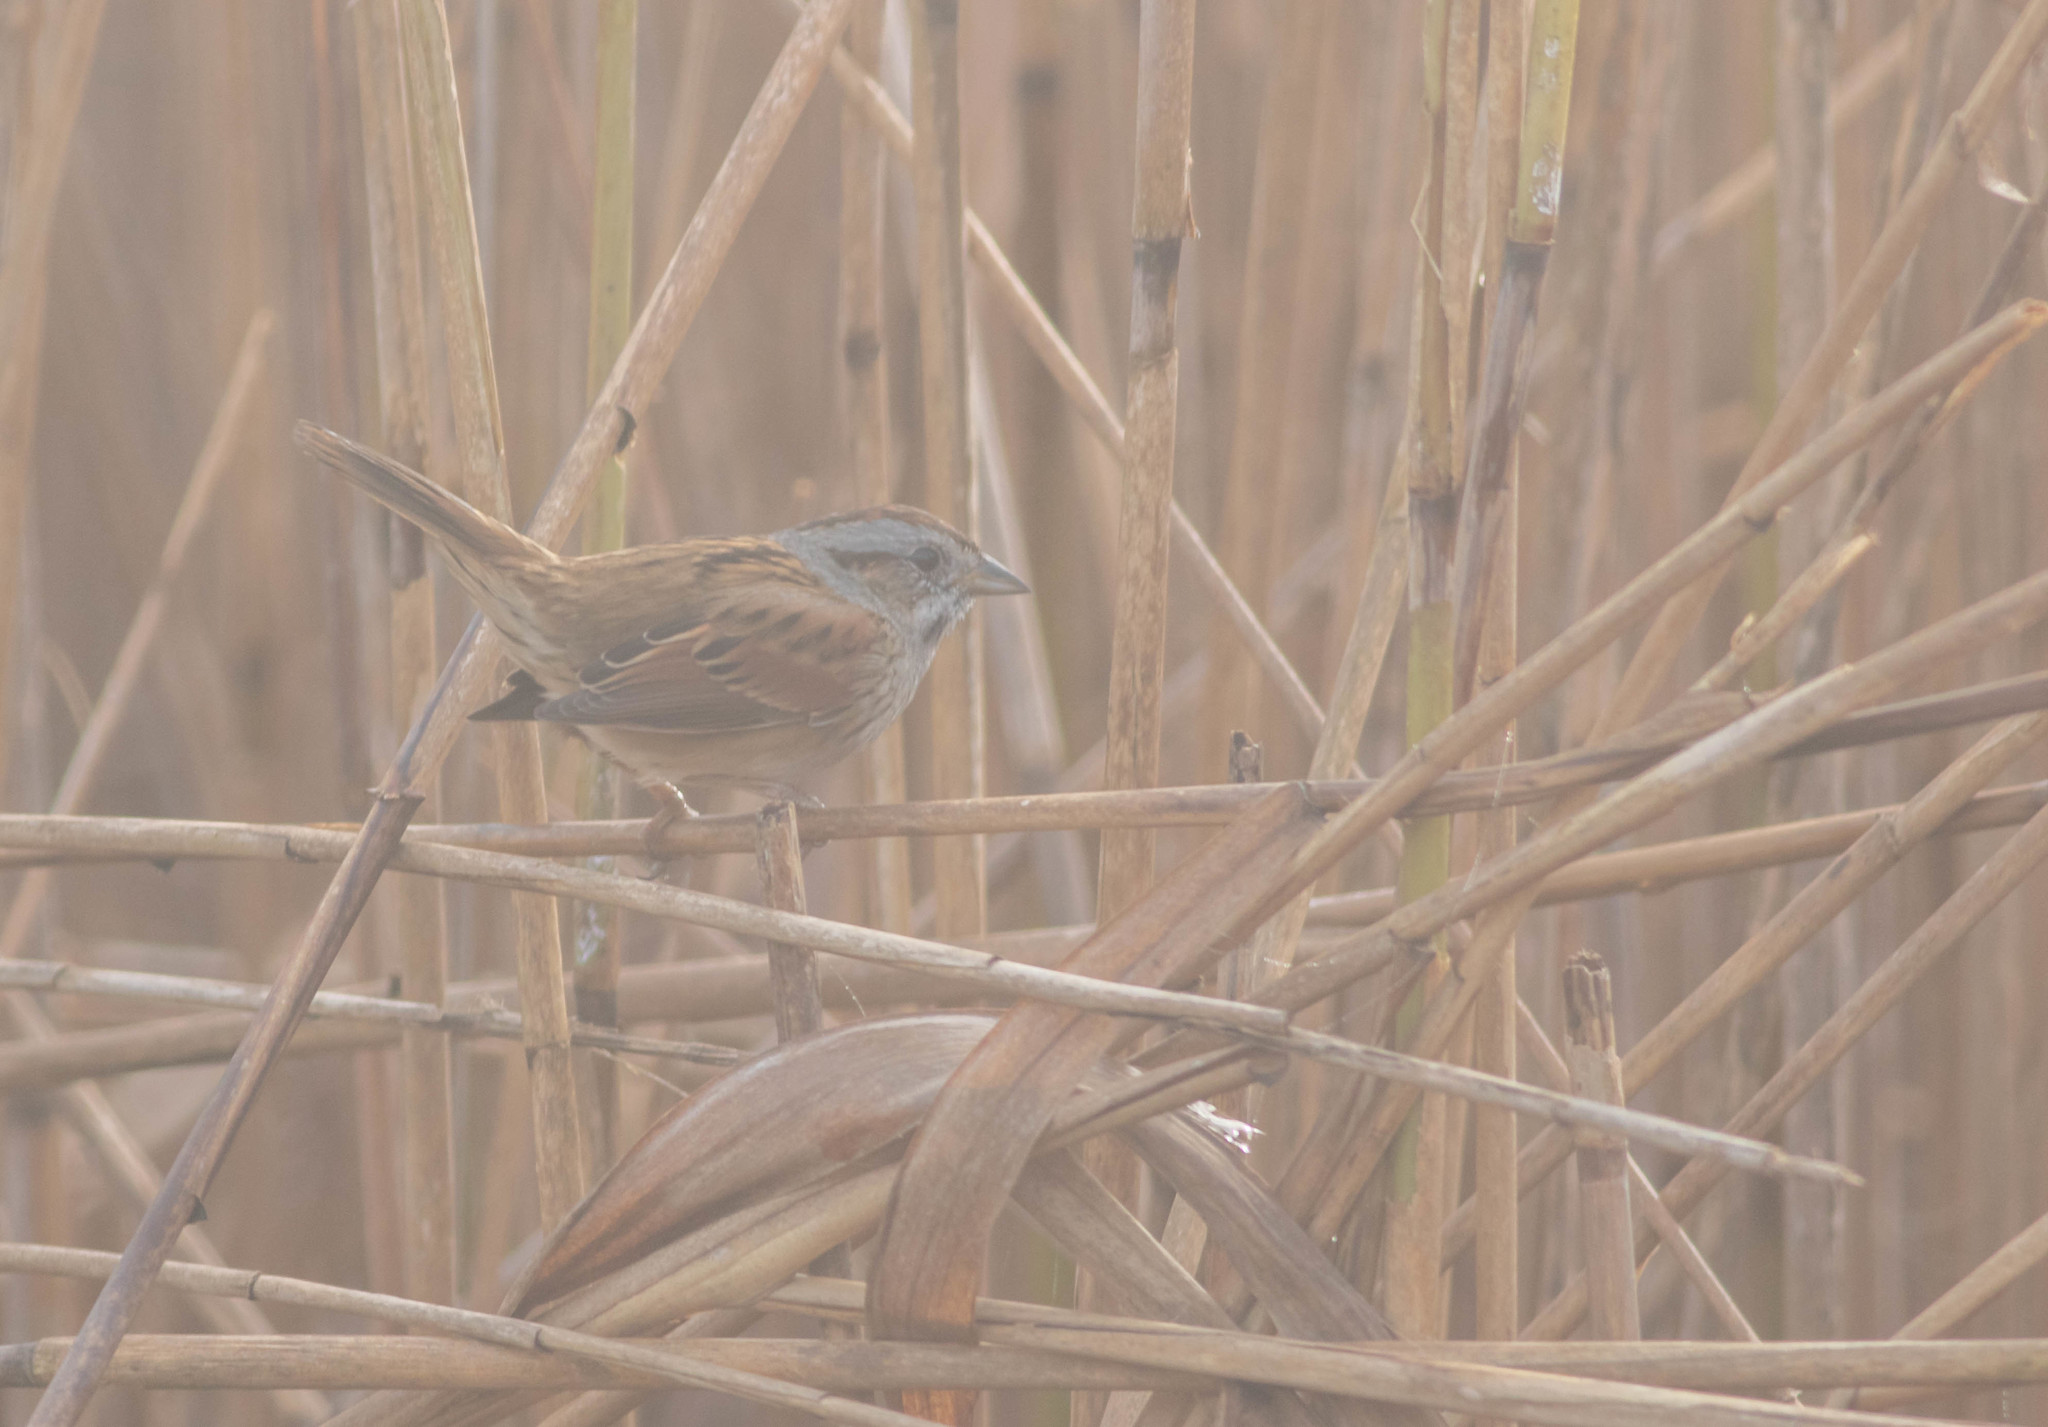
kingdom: Animalia
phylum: Chordata
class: Aves
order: Passeriformes
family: Passerellidae
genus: Melospiza
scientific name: Melospiza georgiana
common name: Swamp sparrow
